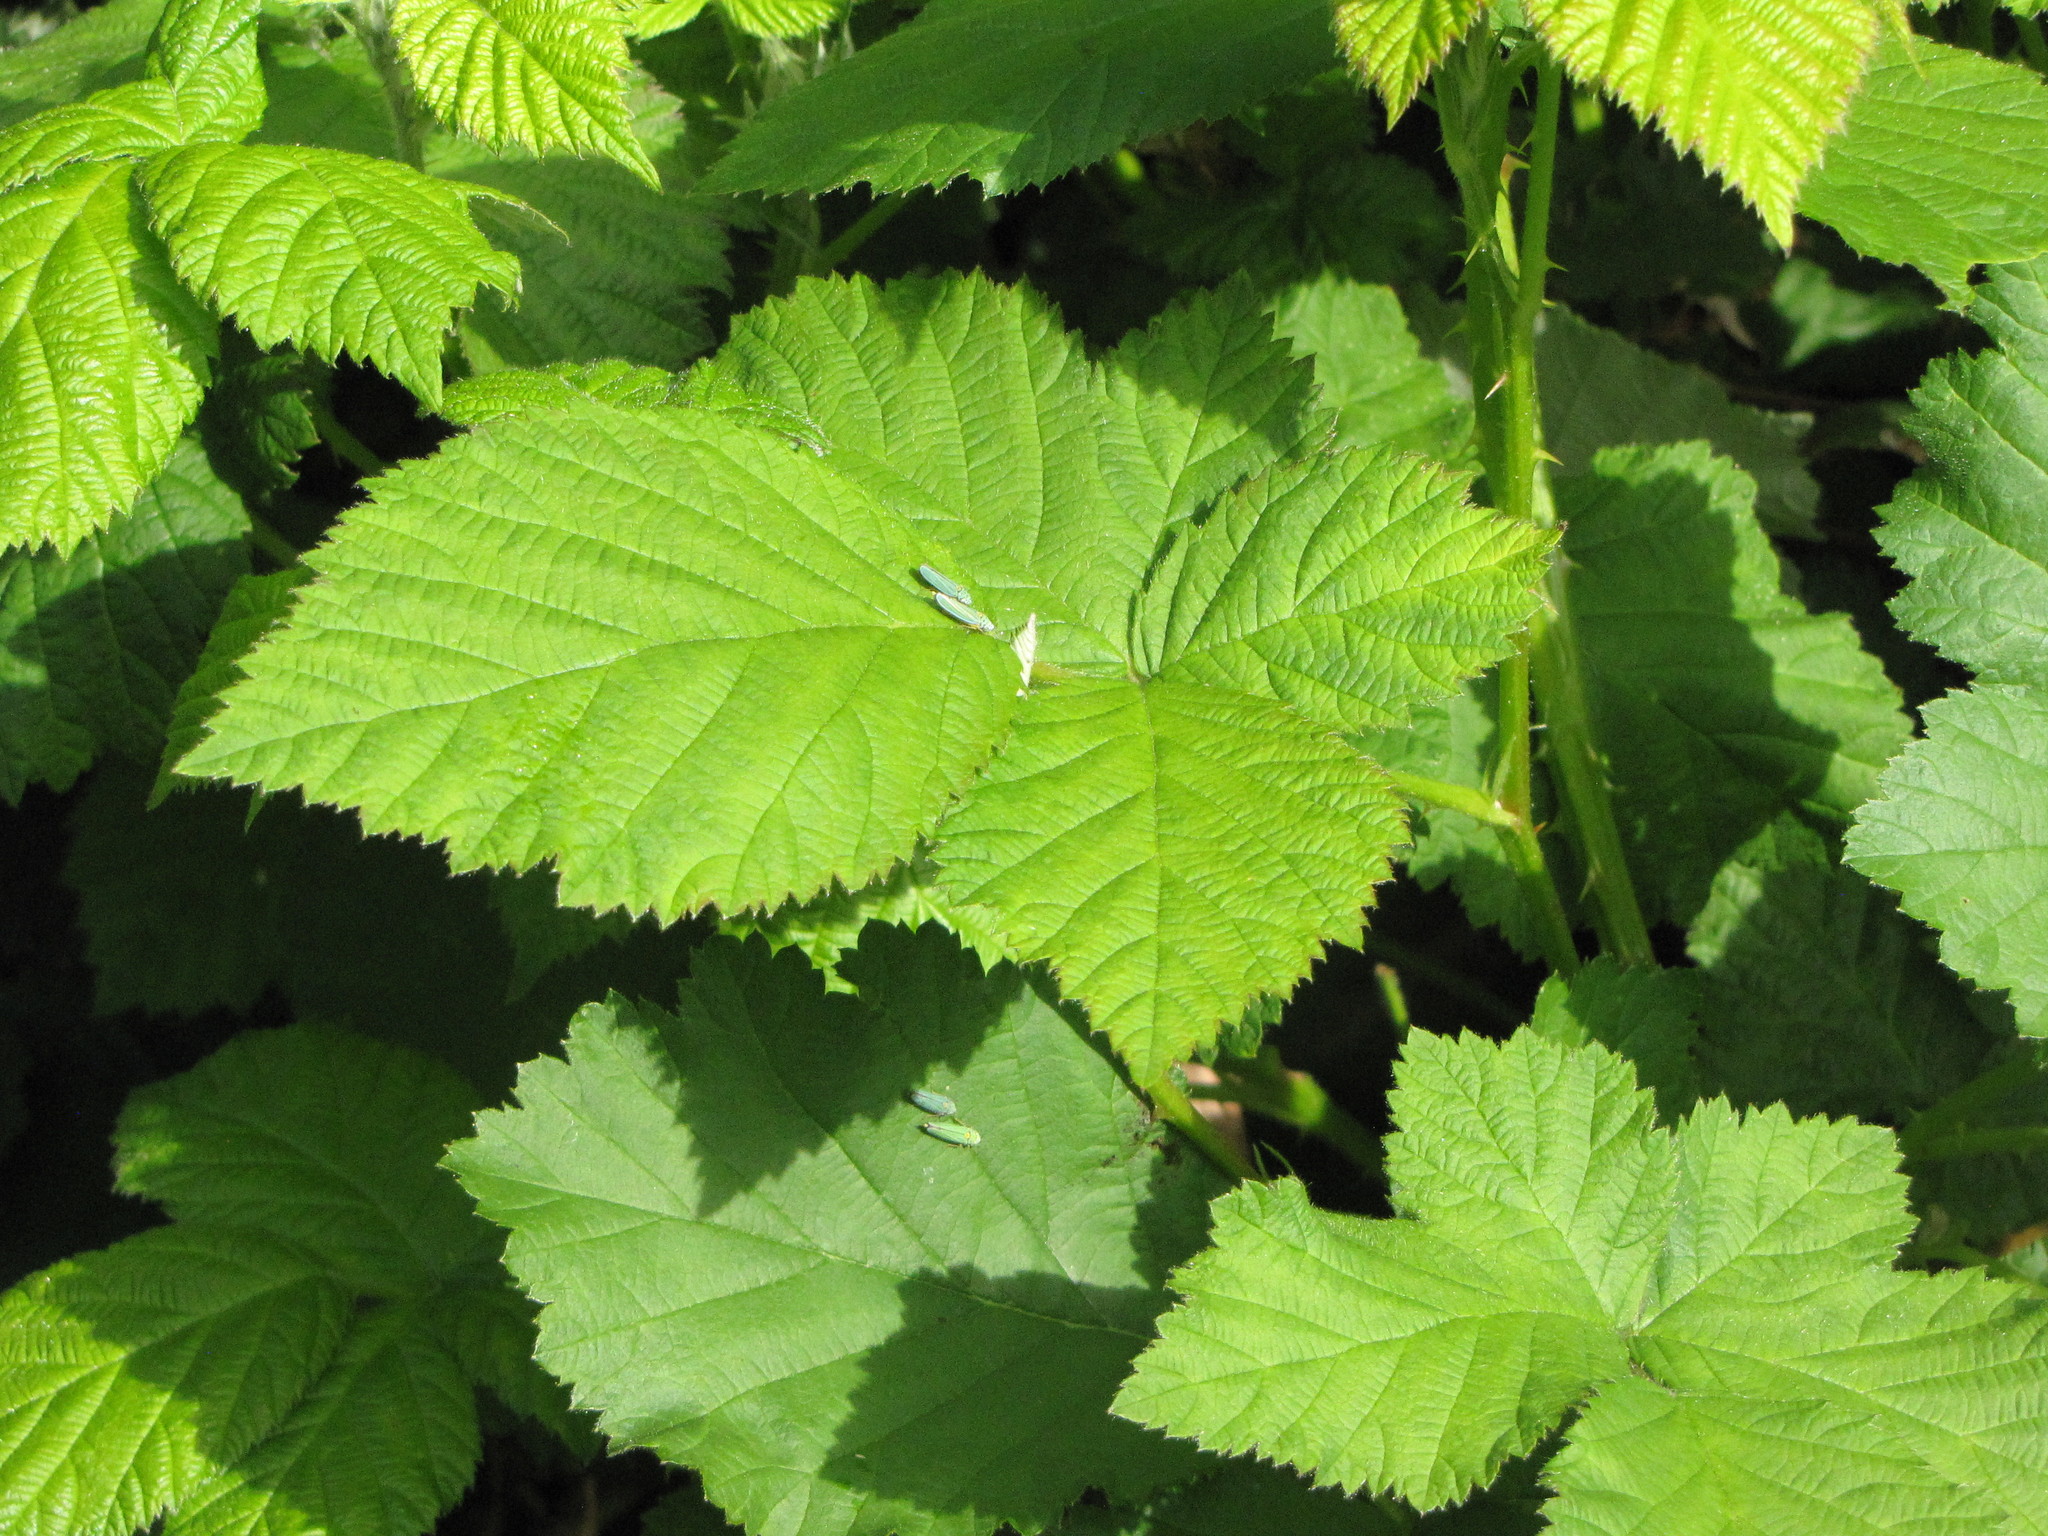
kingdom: Animalia
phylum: Arthropoda
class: Insecta
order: Hemiptera
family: Cicadellidae
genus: Graphocephala
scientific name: Graphocephala atropunctata
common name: Blue-green sharpshooter
